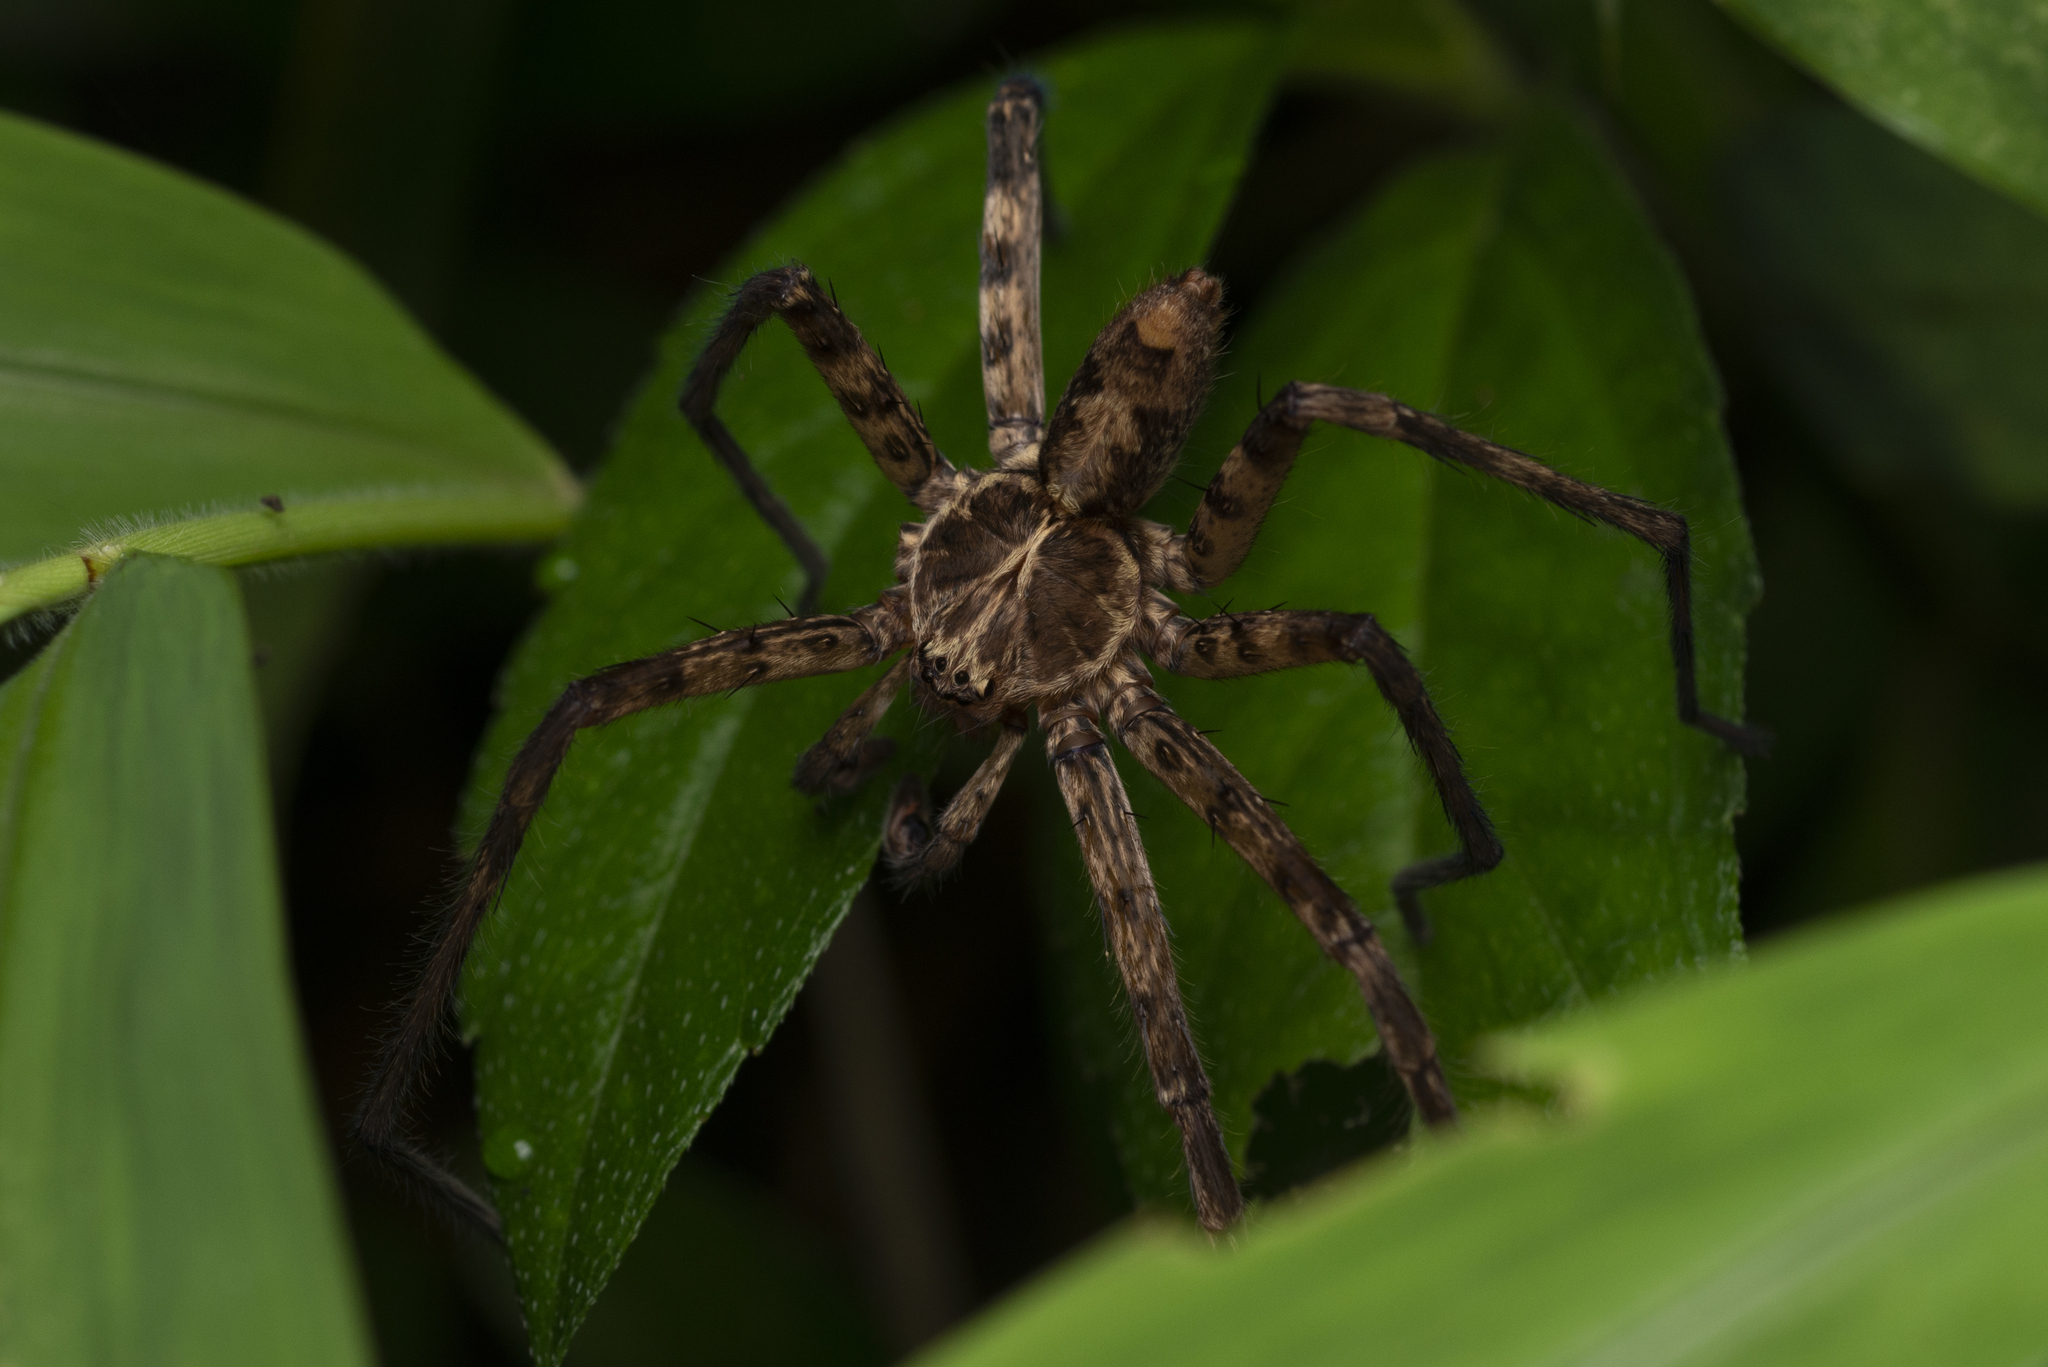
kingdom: Animalia
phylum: Arthropoda
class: Arachnida
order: Araneae
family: Sparassidae
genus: Heteropoda
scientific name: Heteropoda amphora
